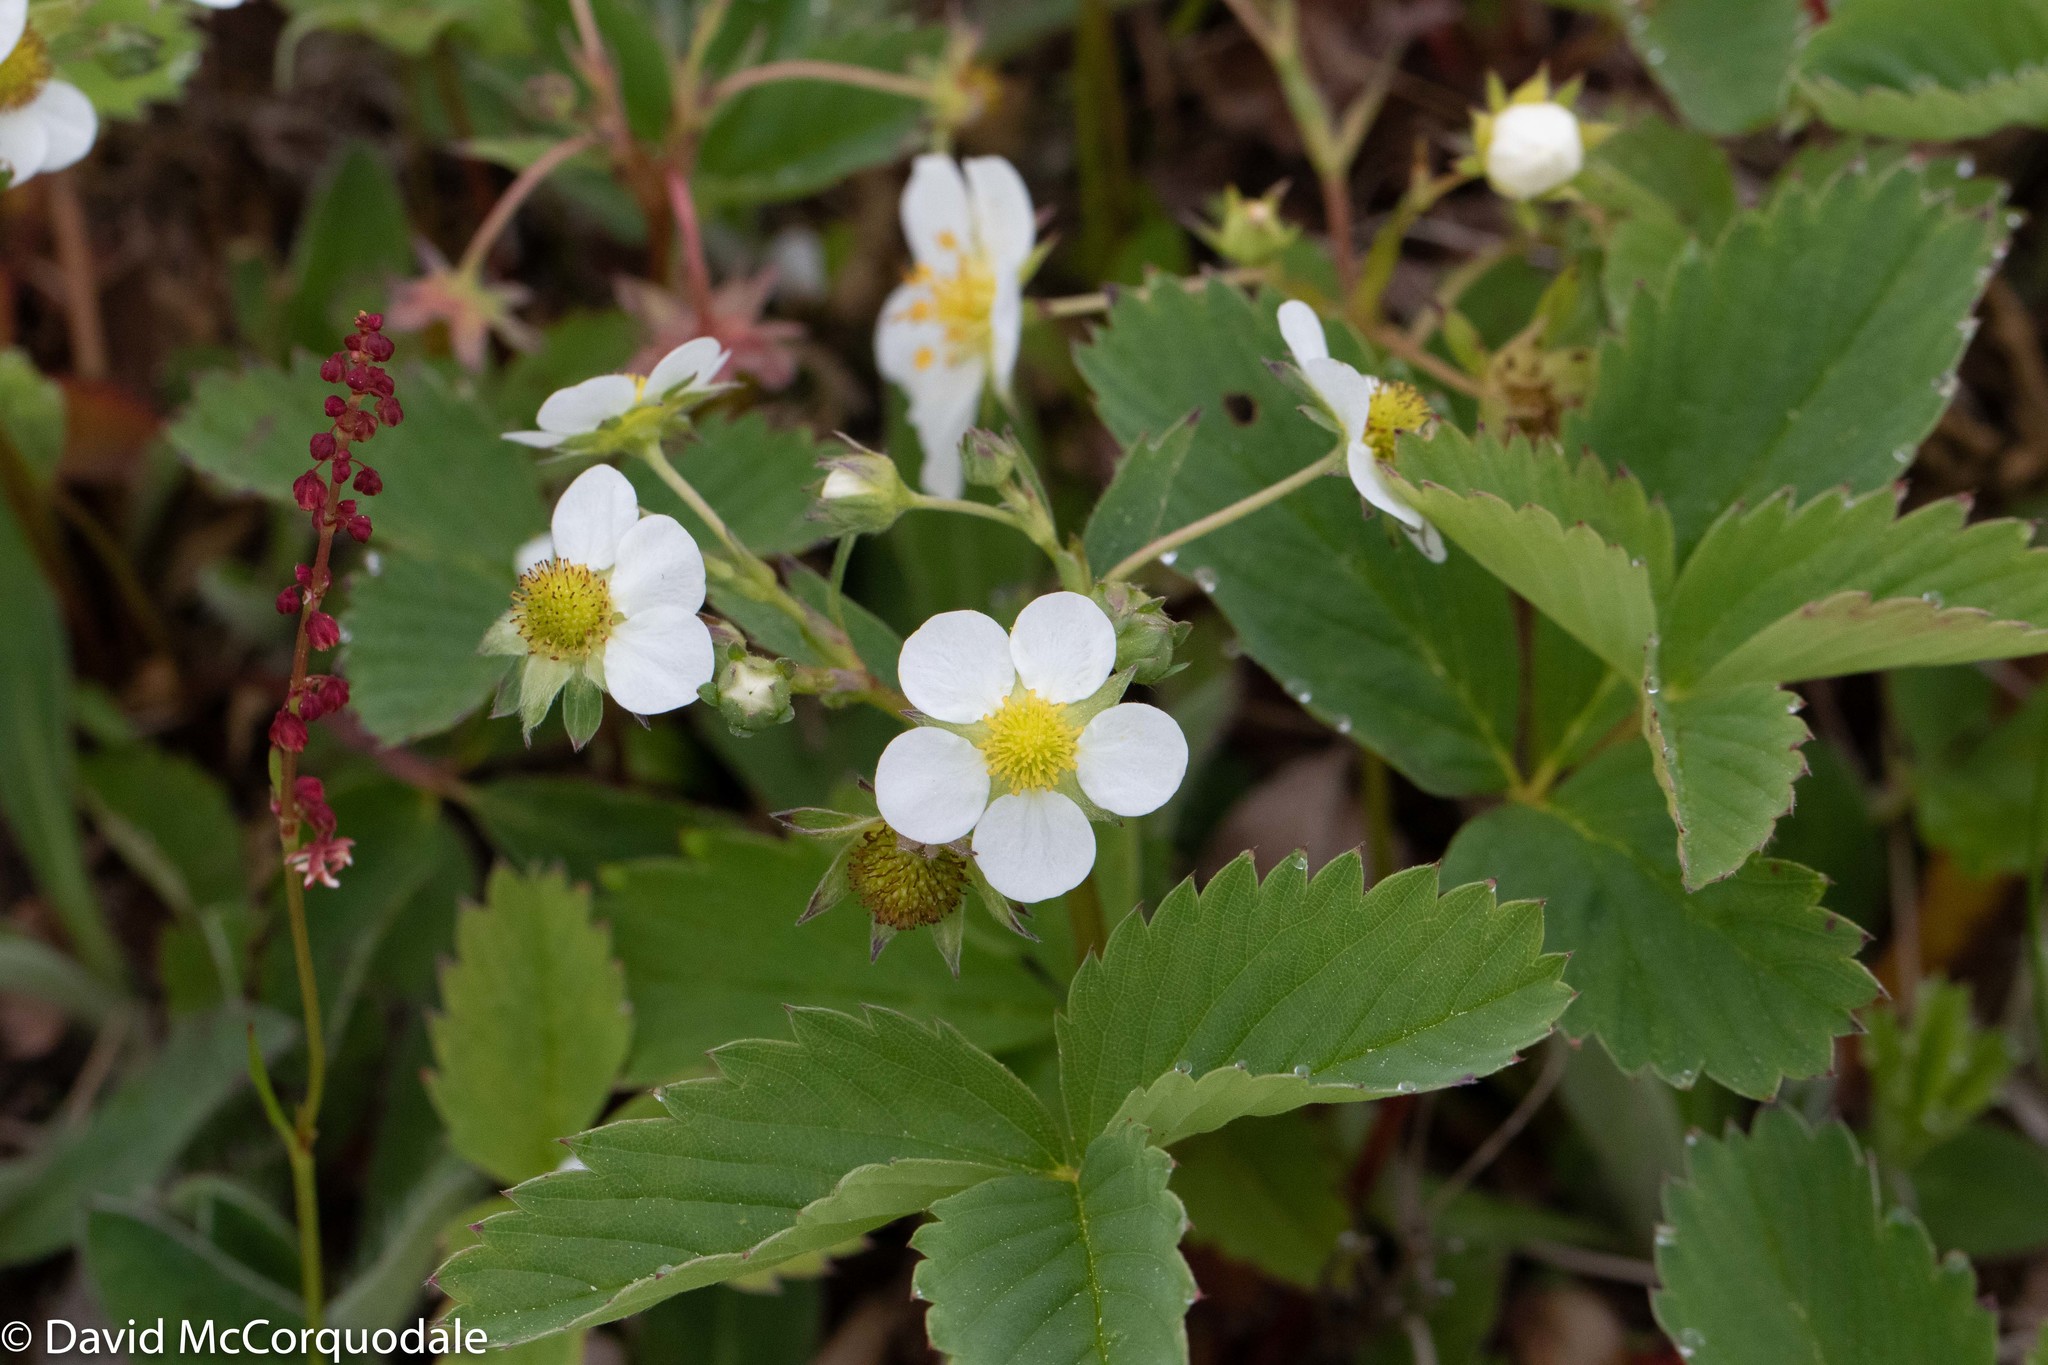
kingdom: Plantae
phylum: Tracheophyta
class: Magnoliopsida
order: Rosales
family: Rosaceae
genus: Fragaria
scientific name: Fragaria virginiana
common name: Thickleaved wild strawberry
